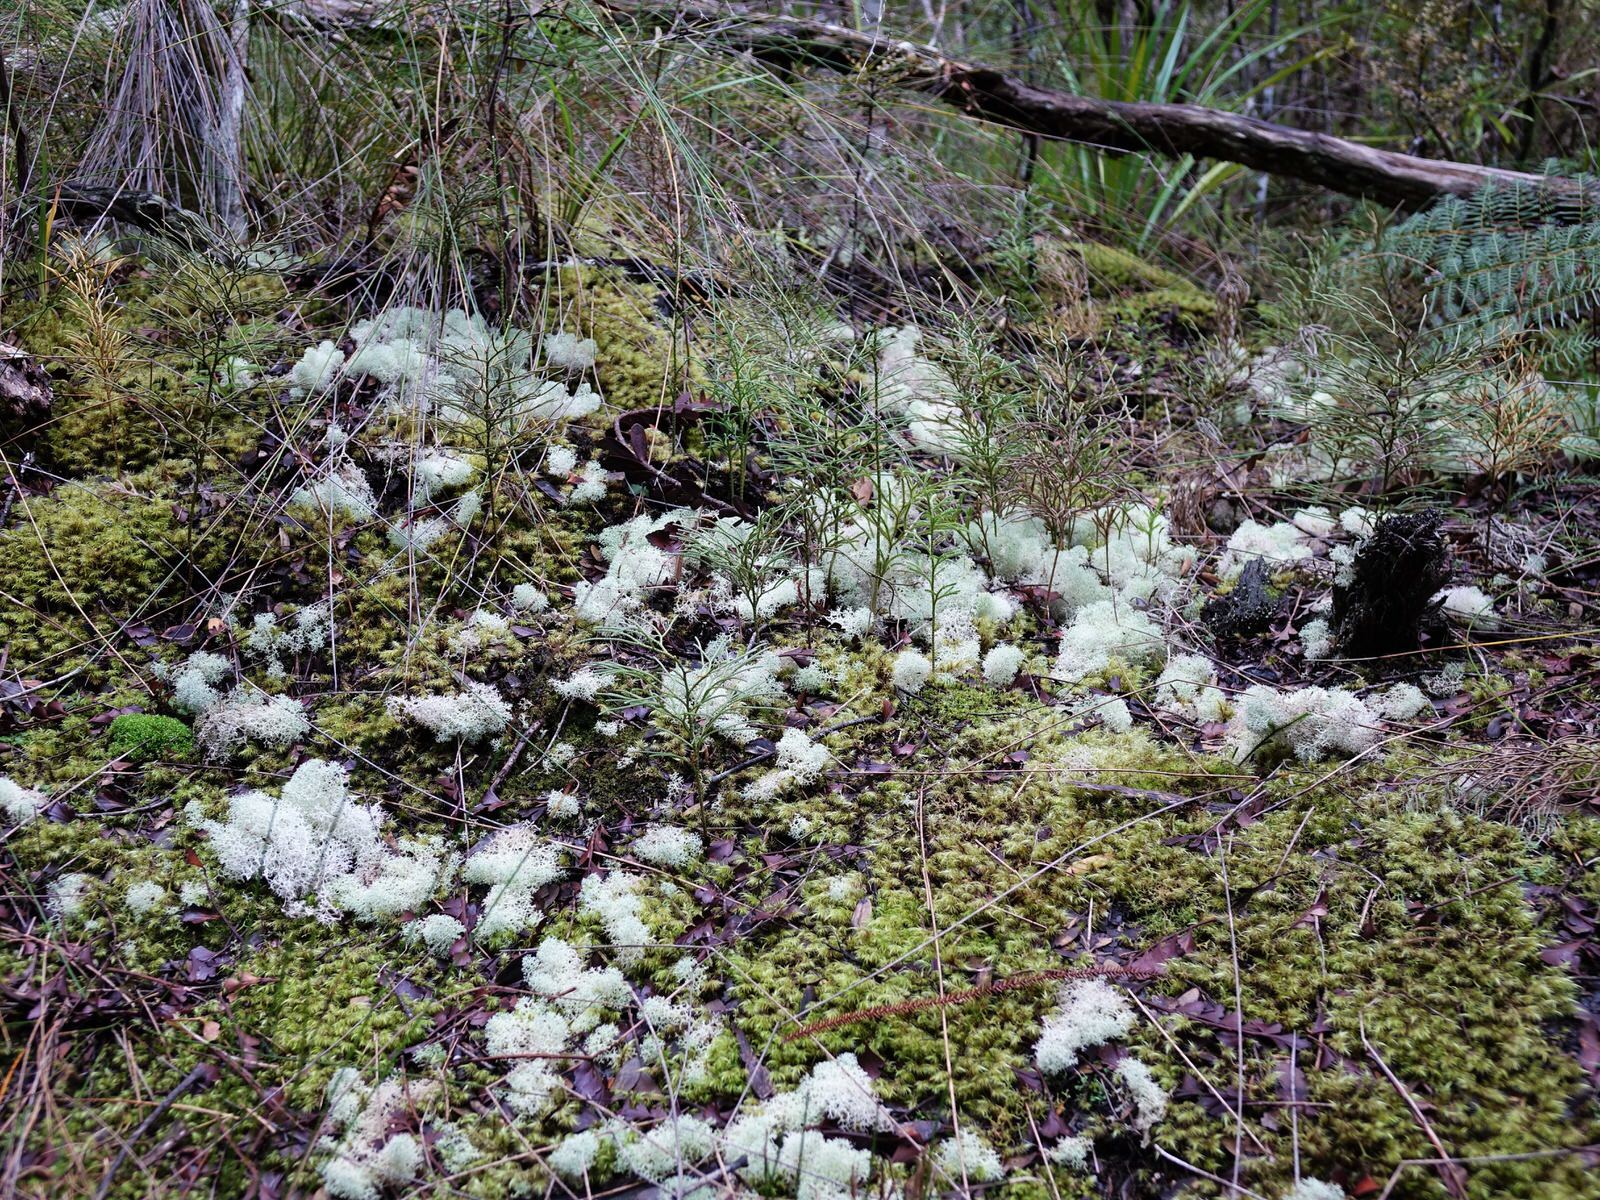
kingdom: Fungi
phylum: Ascomycota
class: Lecanoromycetes
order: Lecanorales
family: Cladoniaceae
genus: Cladonia
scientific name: Cladonia confusa
